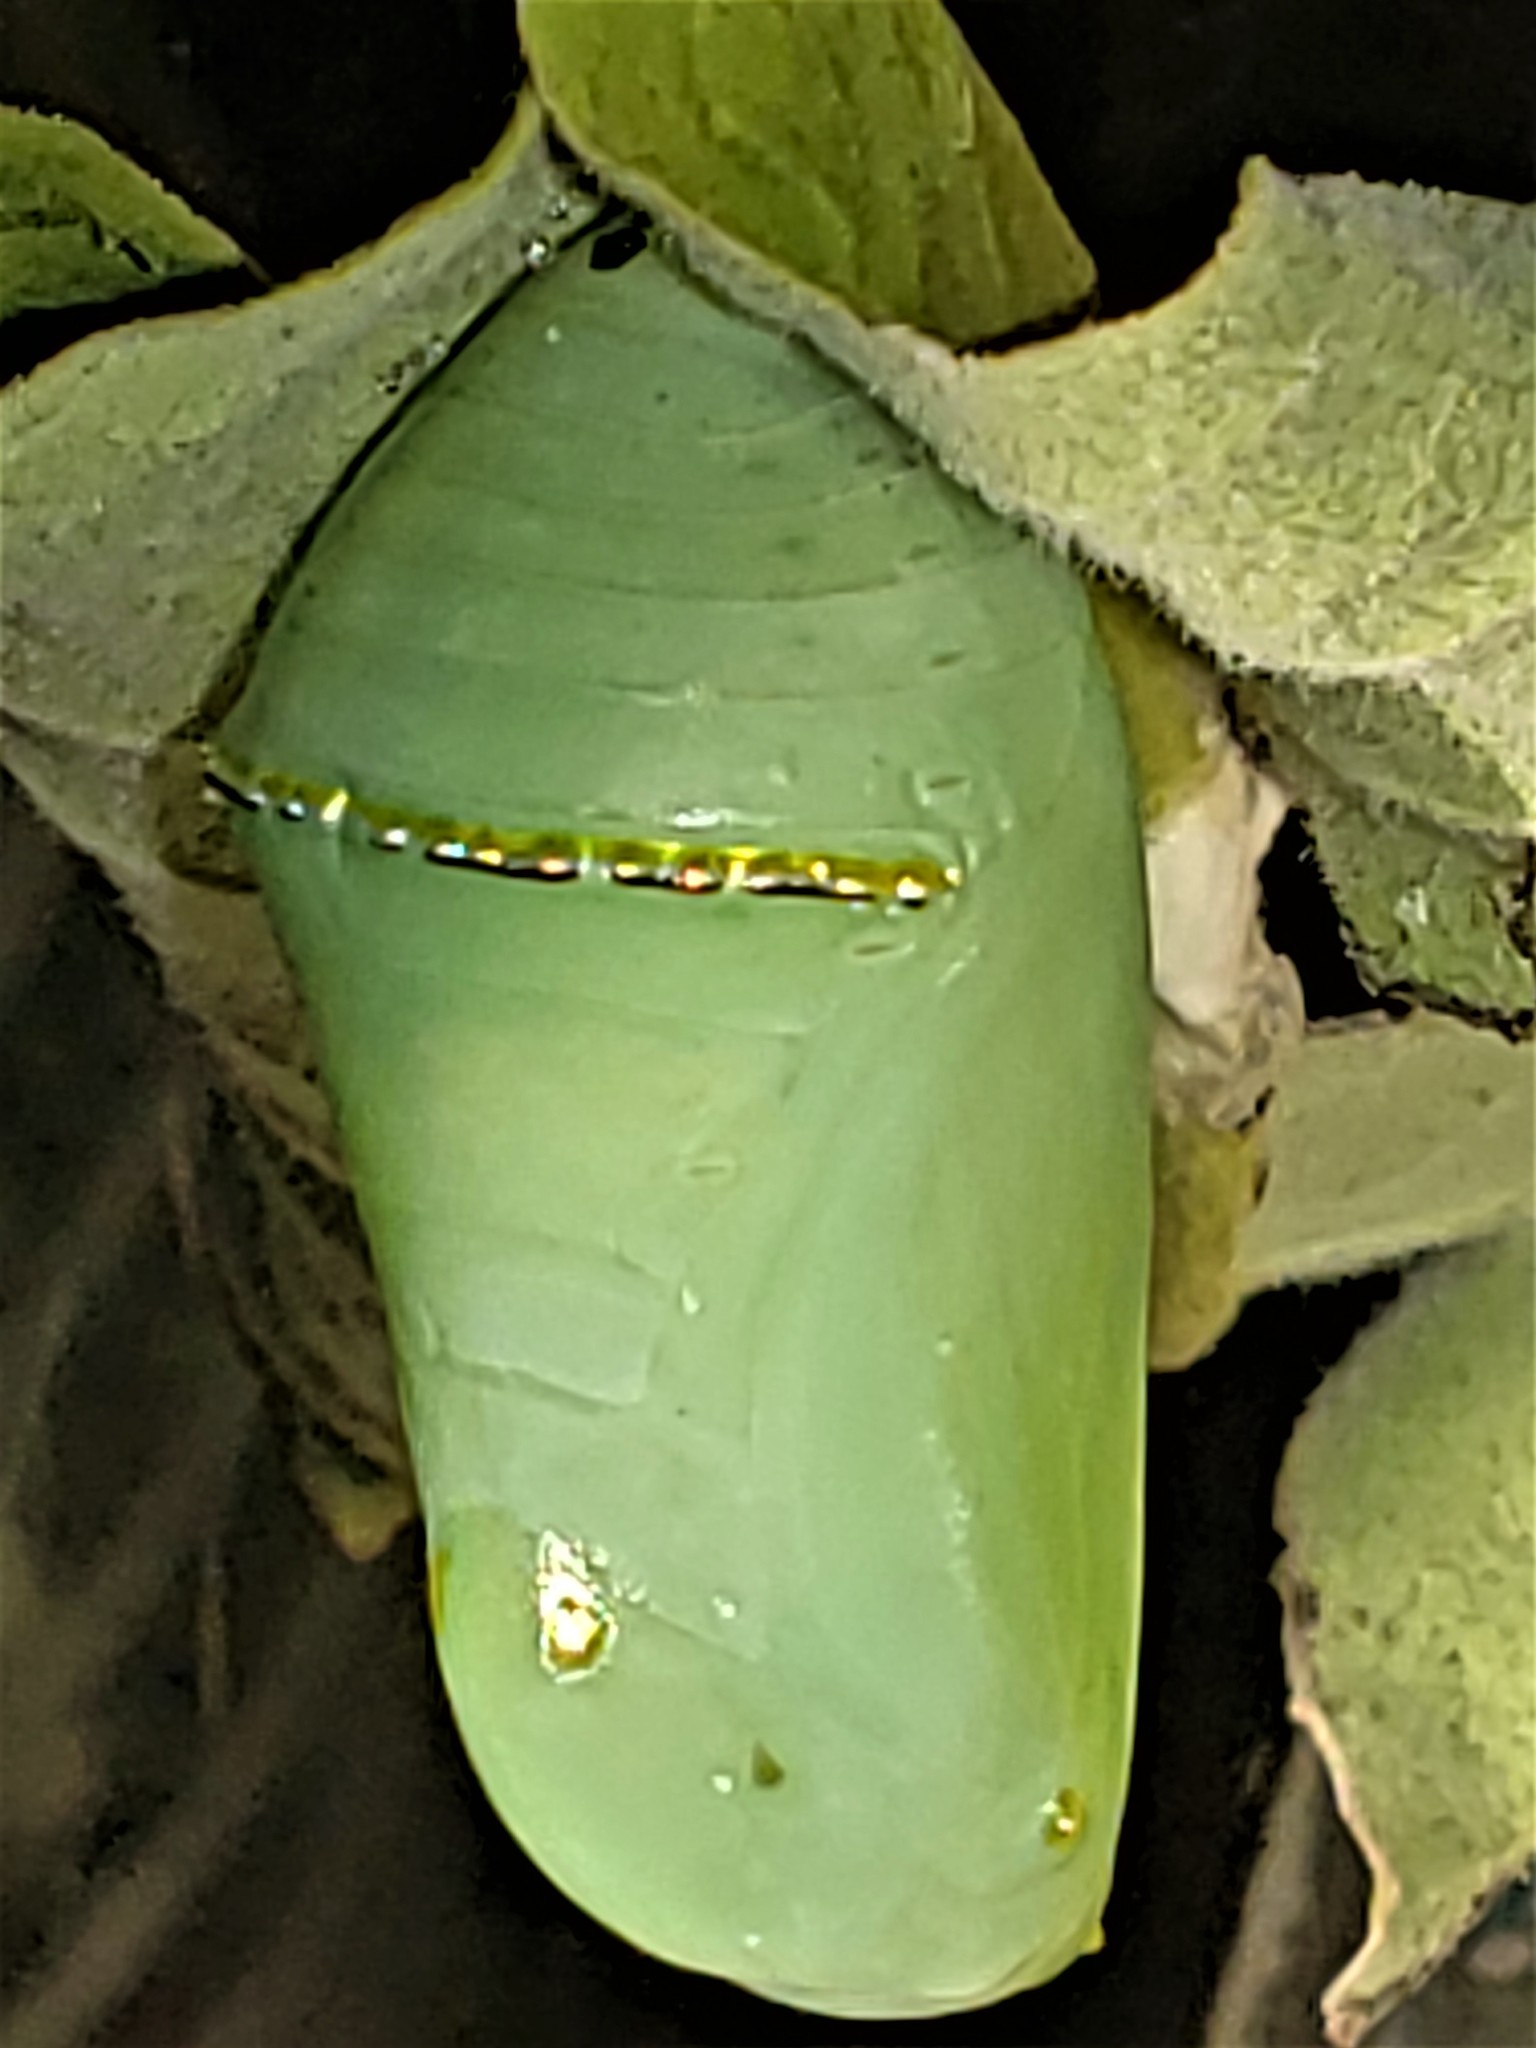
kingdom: Animalia
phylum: Arthropoda
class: Insecta
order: Lepidoptera
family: Nymphalidae
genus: Danaus
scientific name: Danaus plexippus
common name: Monarch
